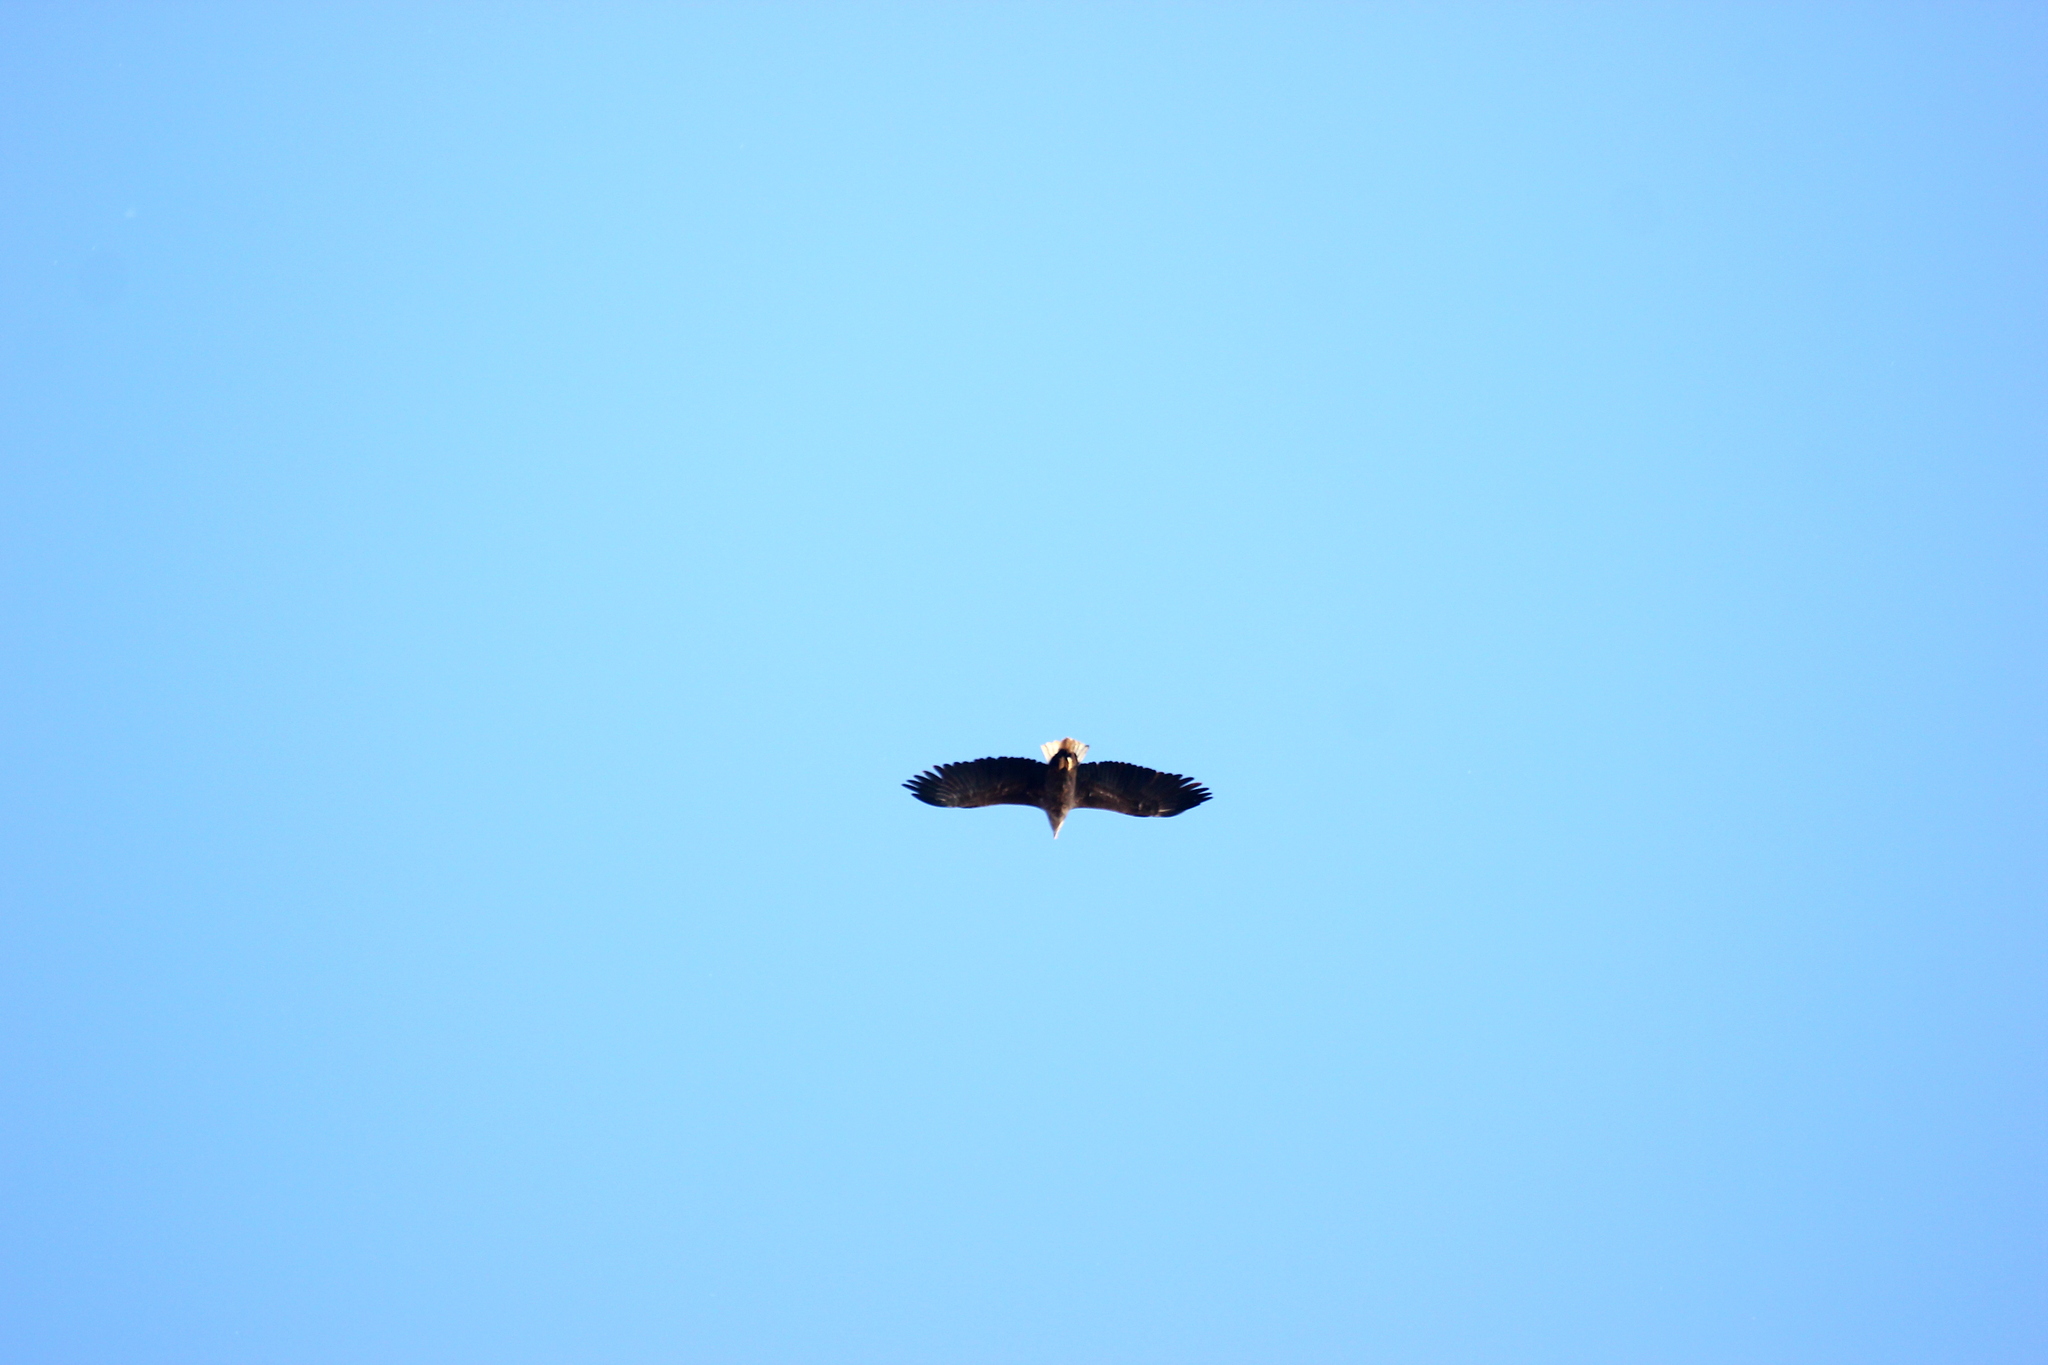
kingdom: Animalia
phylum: Chordata
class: Aves
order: Accipitriformes
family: Accipitridae
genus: Haliaeetus
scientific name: Haliaeetus albicilla
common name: White-tailed eagle
